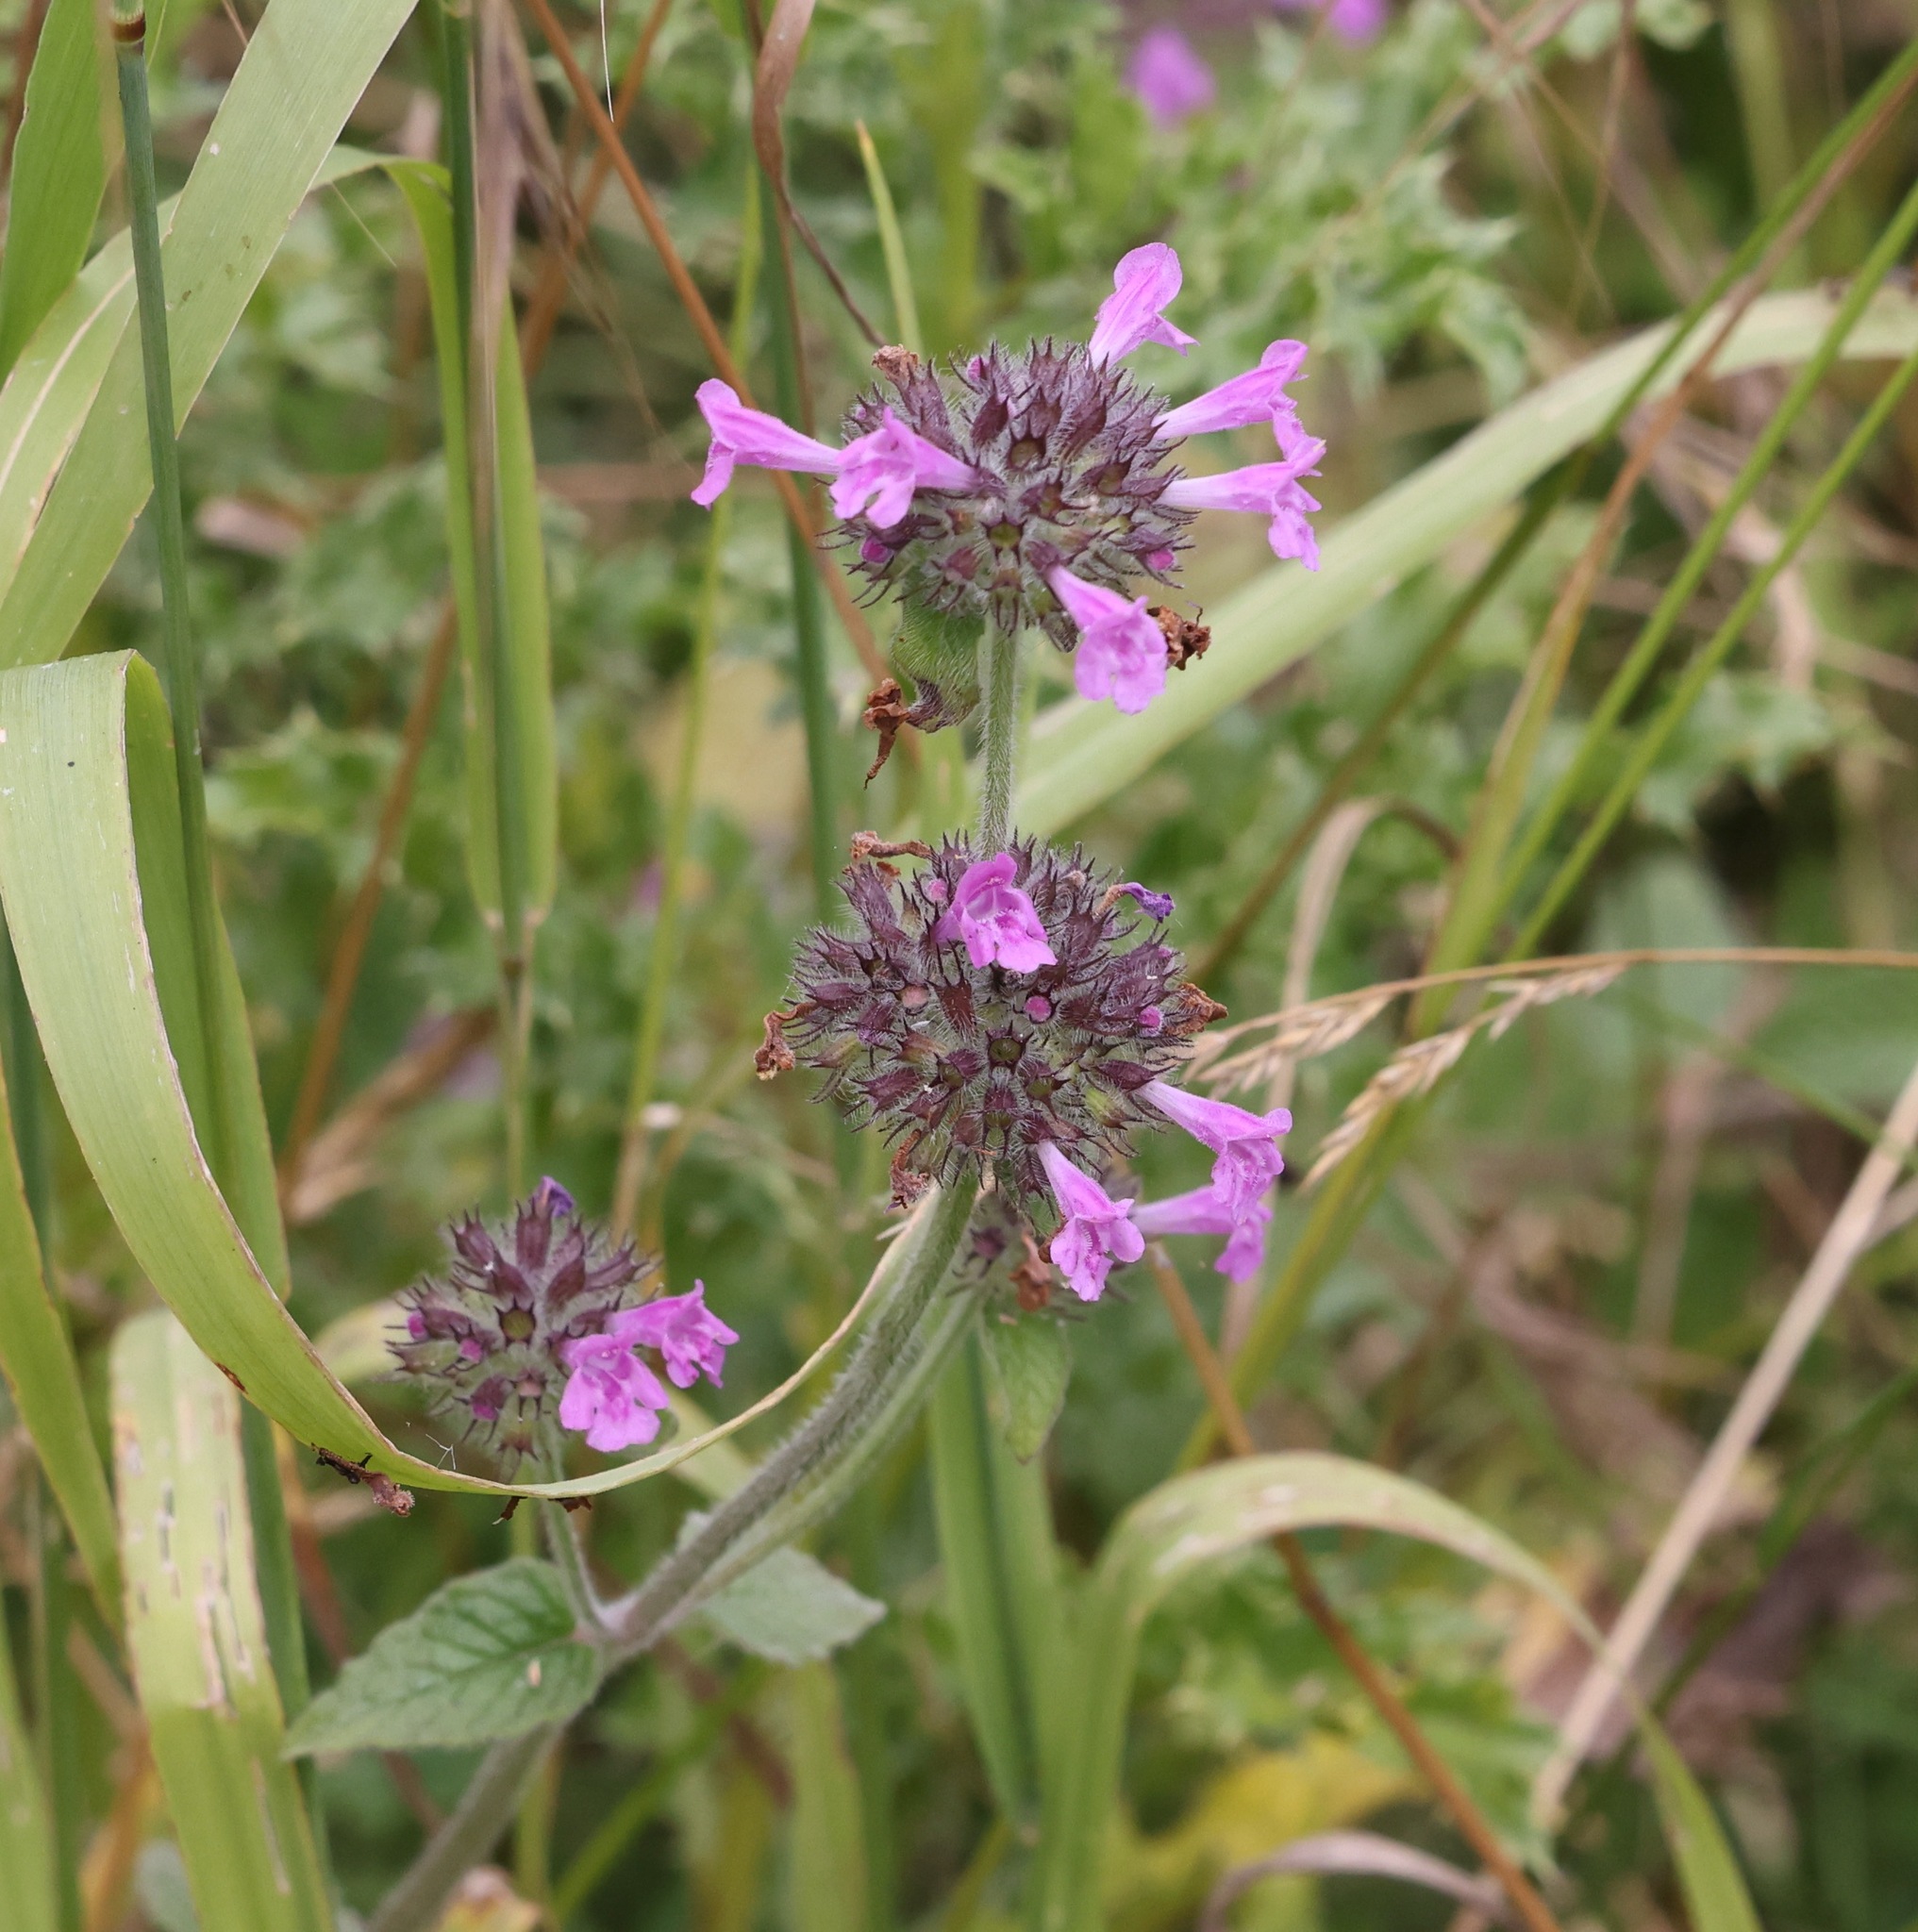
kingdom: Plantae
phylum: Tracheophyta
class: Magnoliopsida
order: Lamiales
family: Lamiaceae
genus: Clinopodium
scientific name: Clinopodium vulgare
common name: Wild basil
